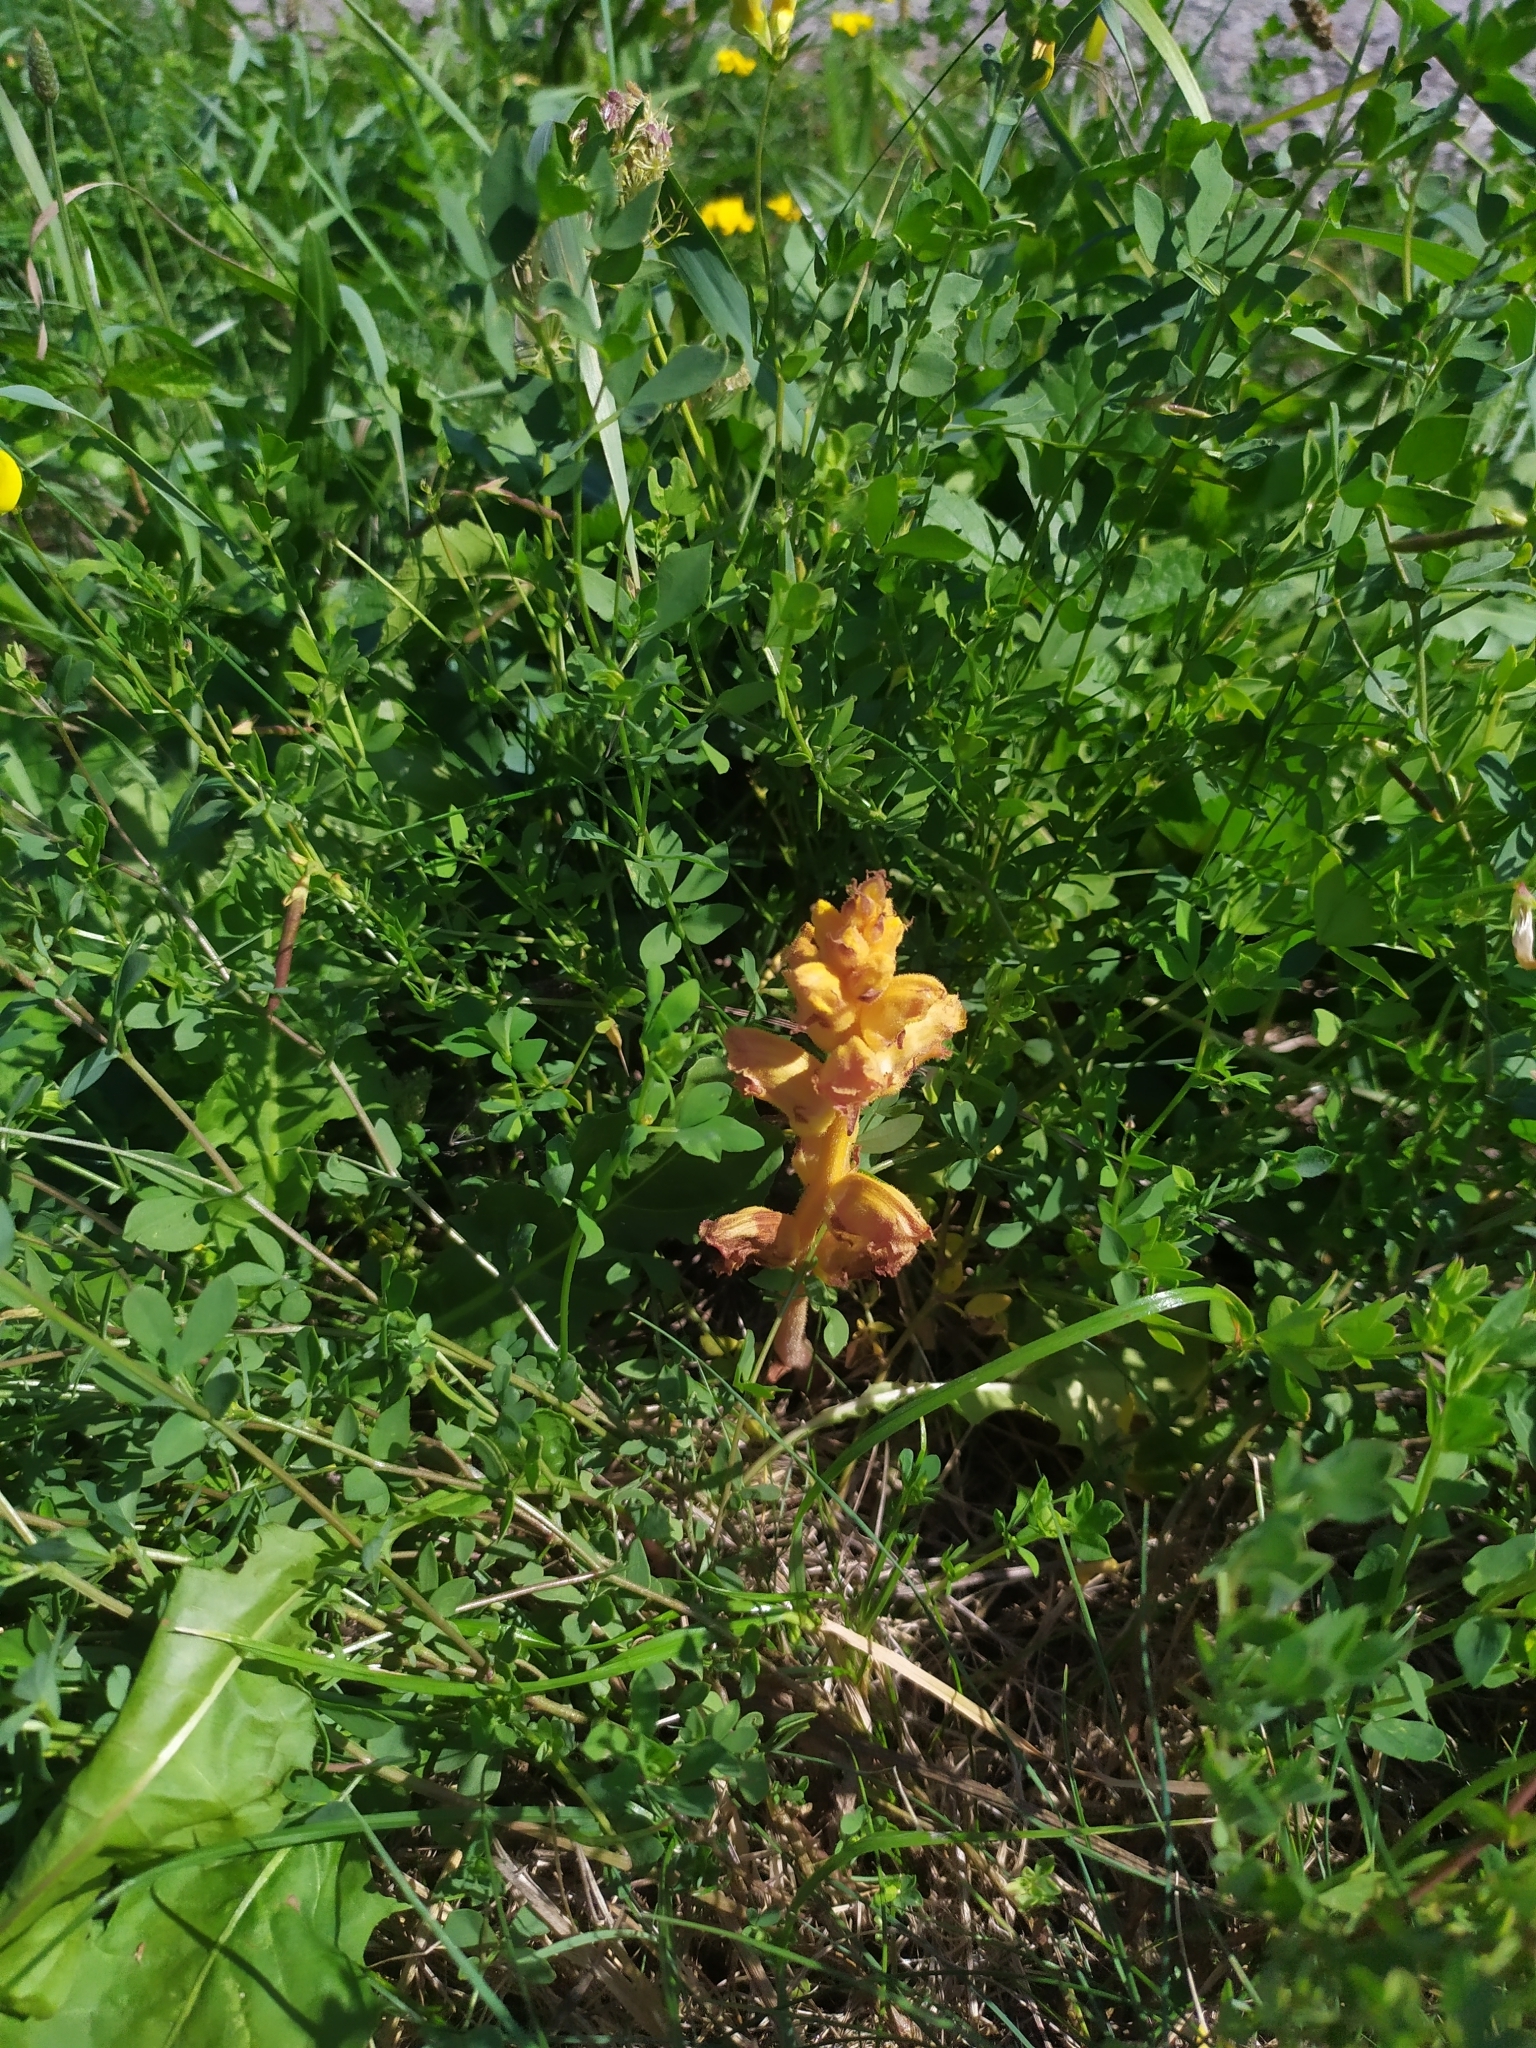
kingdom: Plantae
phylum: Tracheophyta
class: Magnoliopsida
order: Lamiales
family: Orobanchaceae
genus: Orobanche
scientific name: Orobanche gracilis
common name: Slender broomrape
